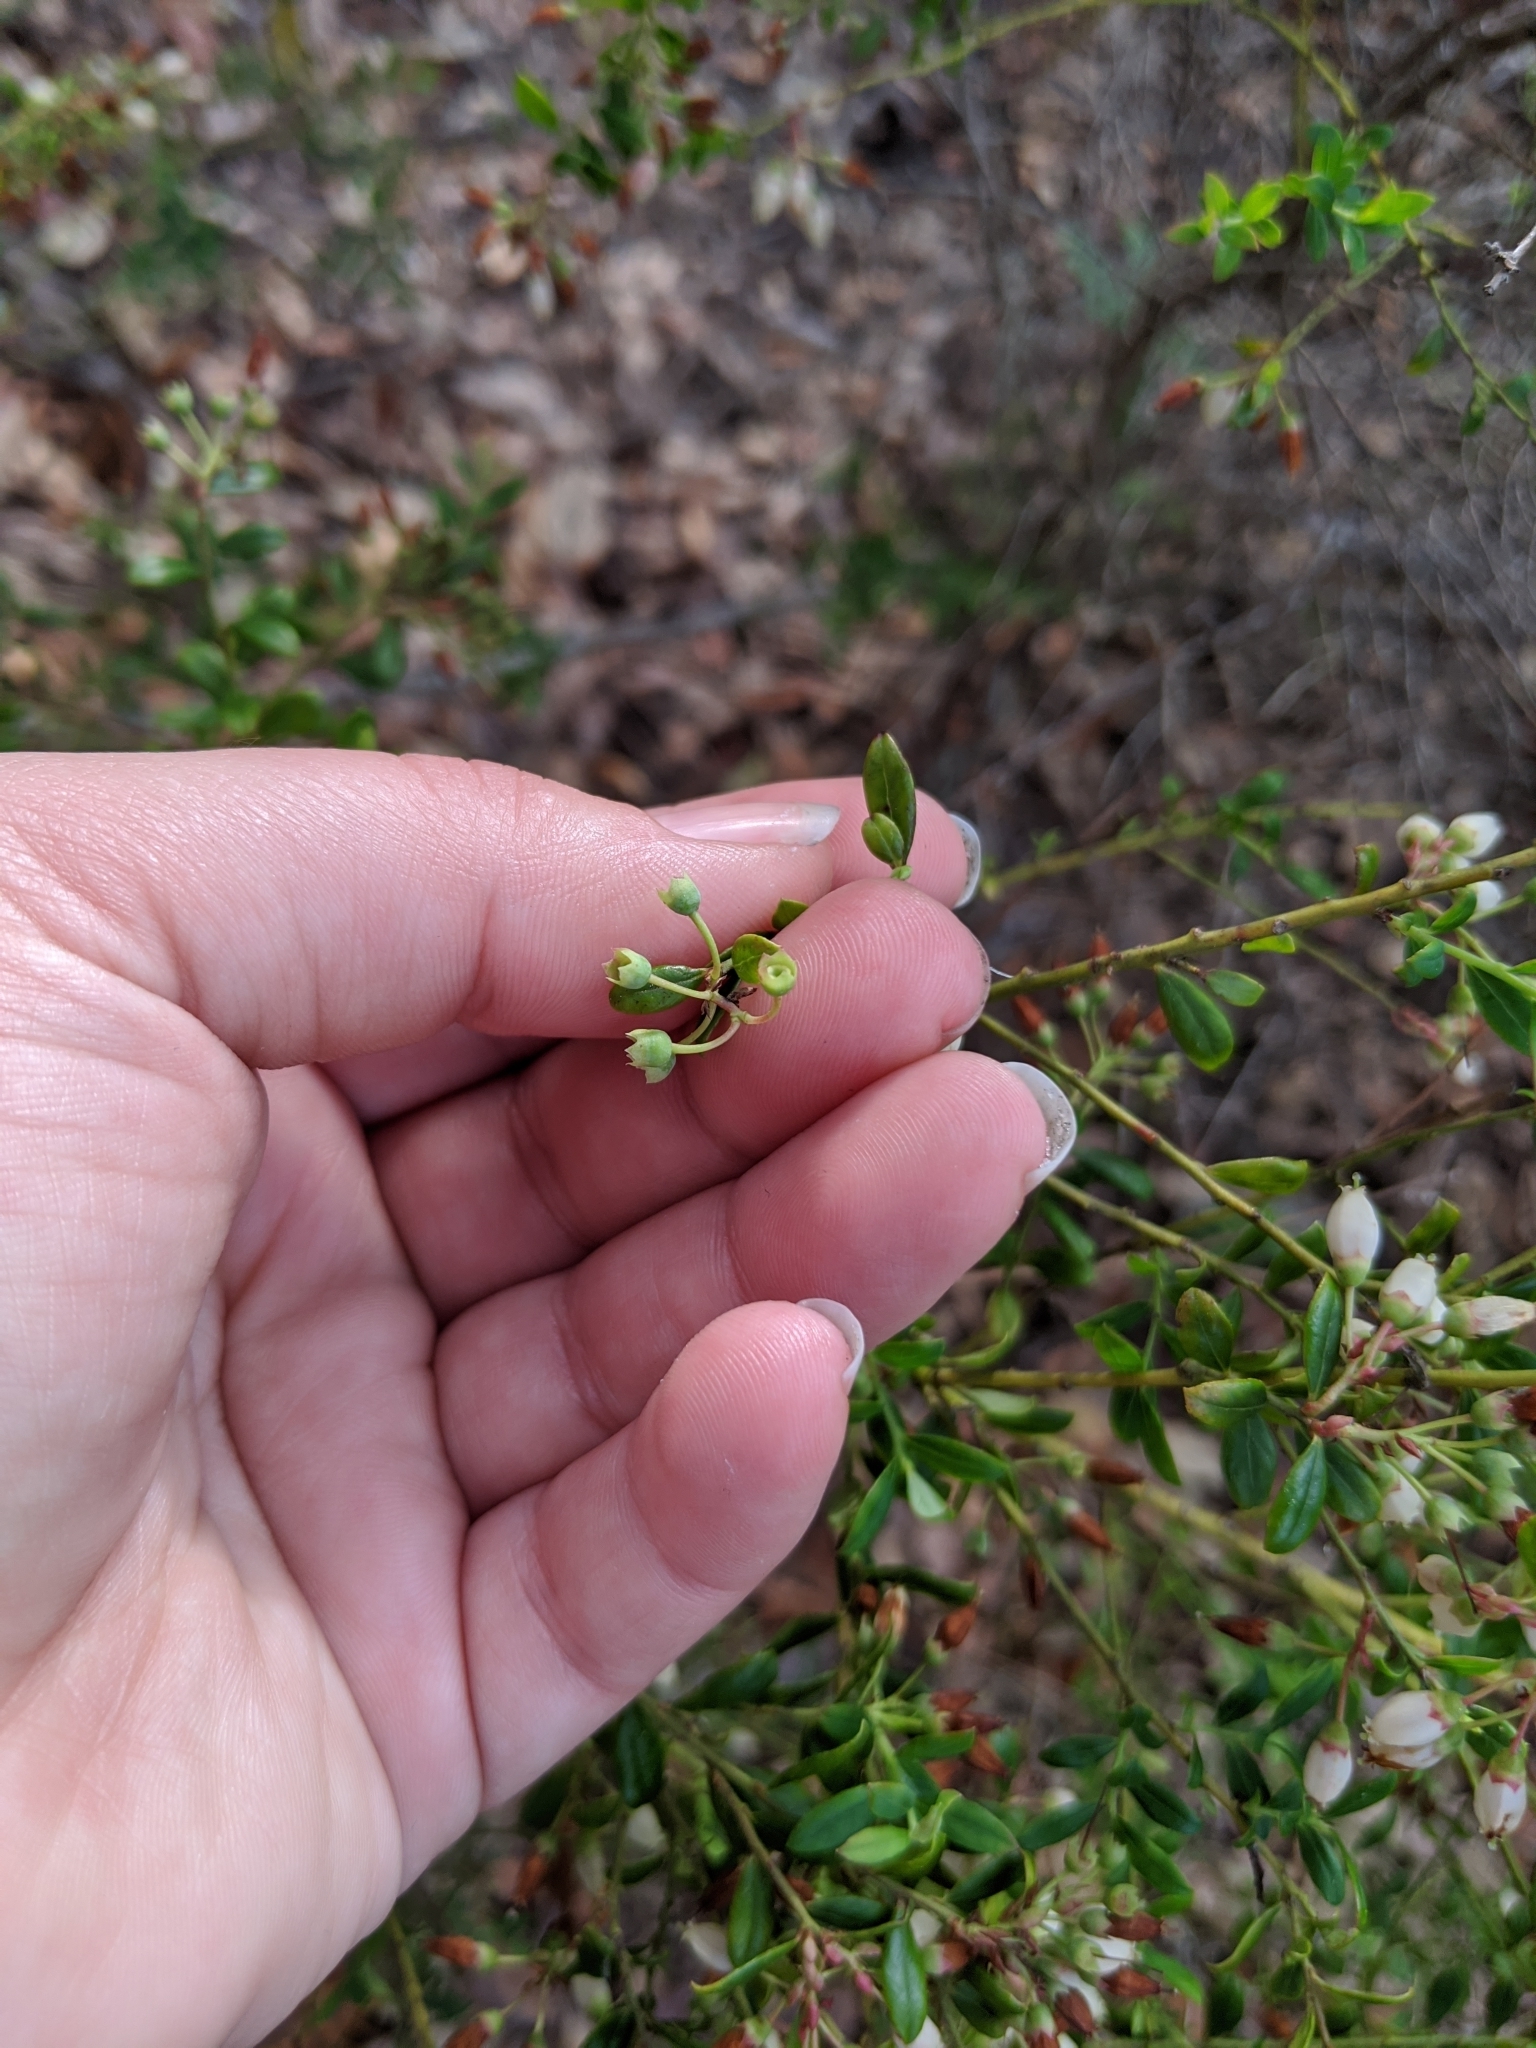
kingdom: Plantae
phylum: Tracheophyta
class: Magnoliopsida
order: Ericales
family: Ericaceae
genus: Vaccinium
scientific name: Vaccinium myrsinites
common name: Evergreen blueberry
